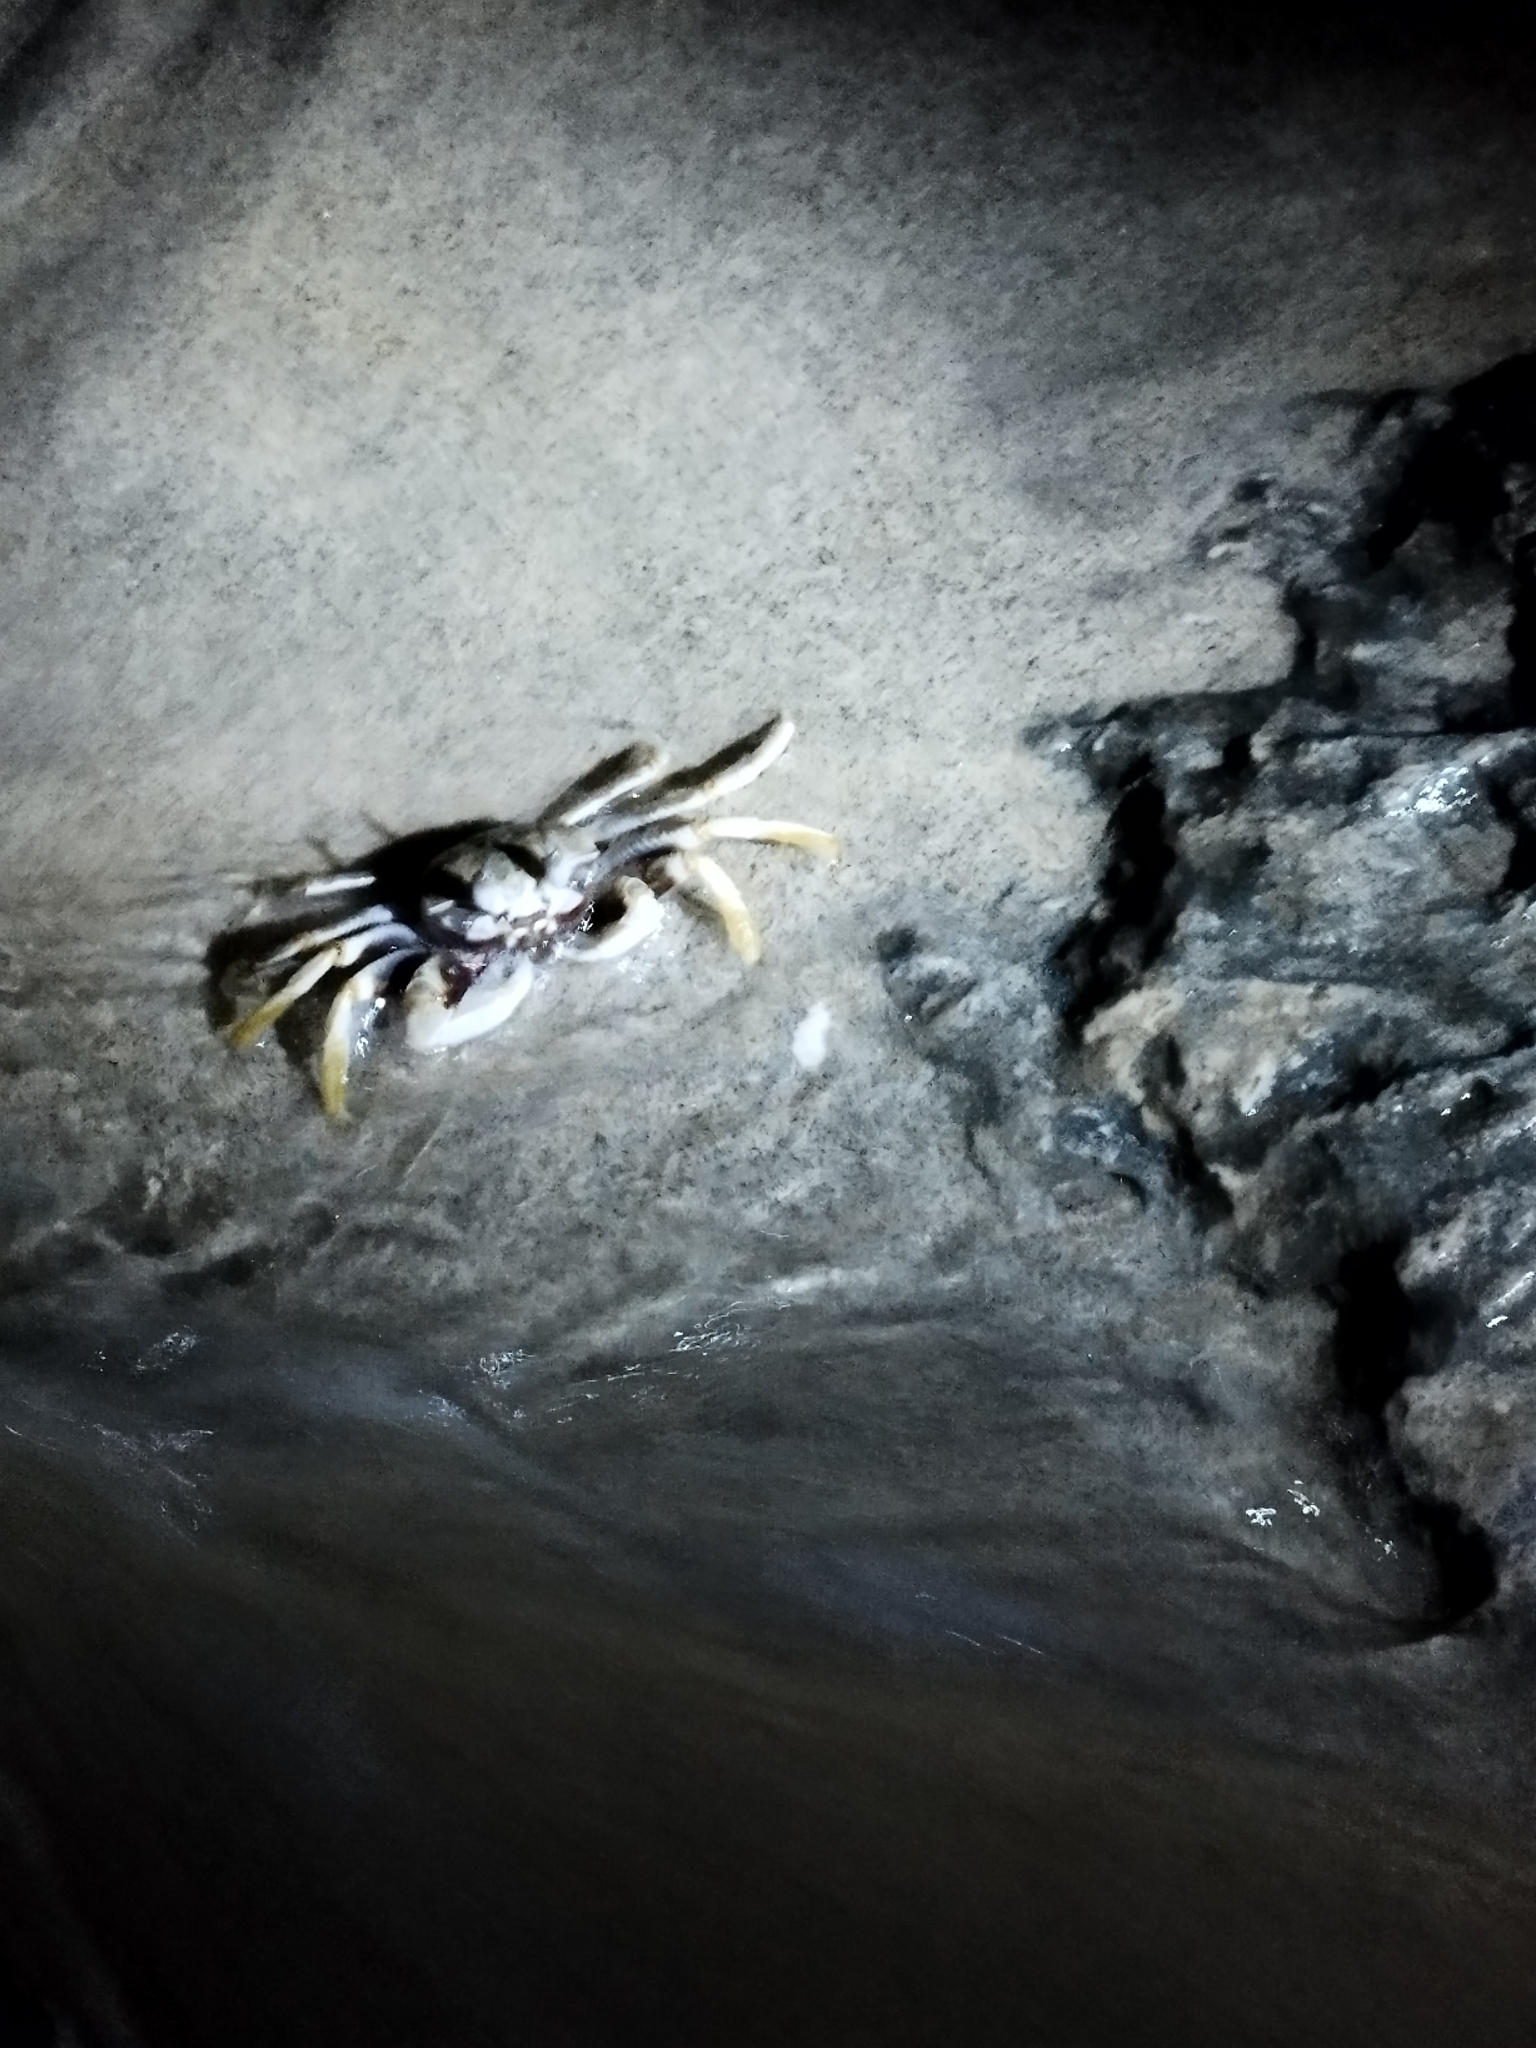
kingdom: Animalia
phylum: Arthropoda
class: Malacostraca
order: Decapoda
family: Ocypodidae
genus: Ocypode
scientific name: Ocypode ceratophthalmus
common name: Indo-pacific ghost crab
